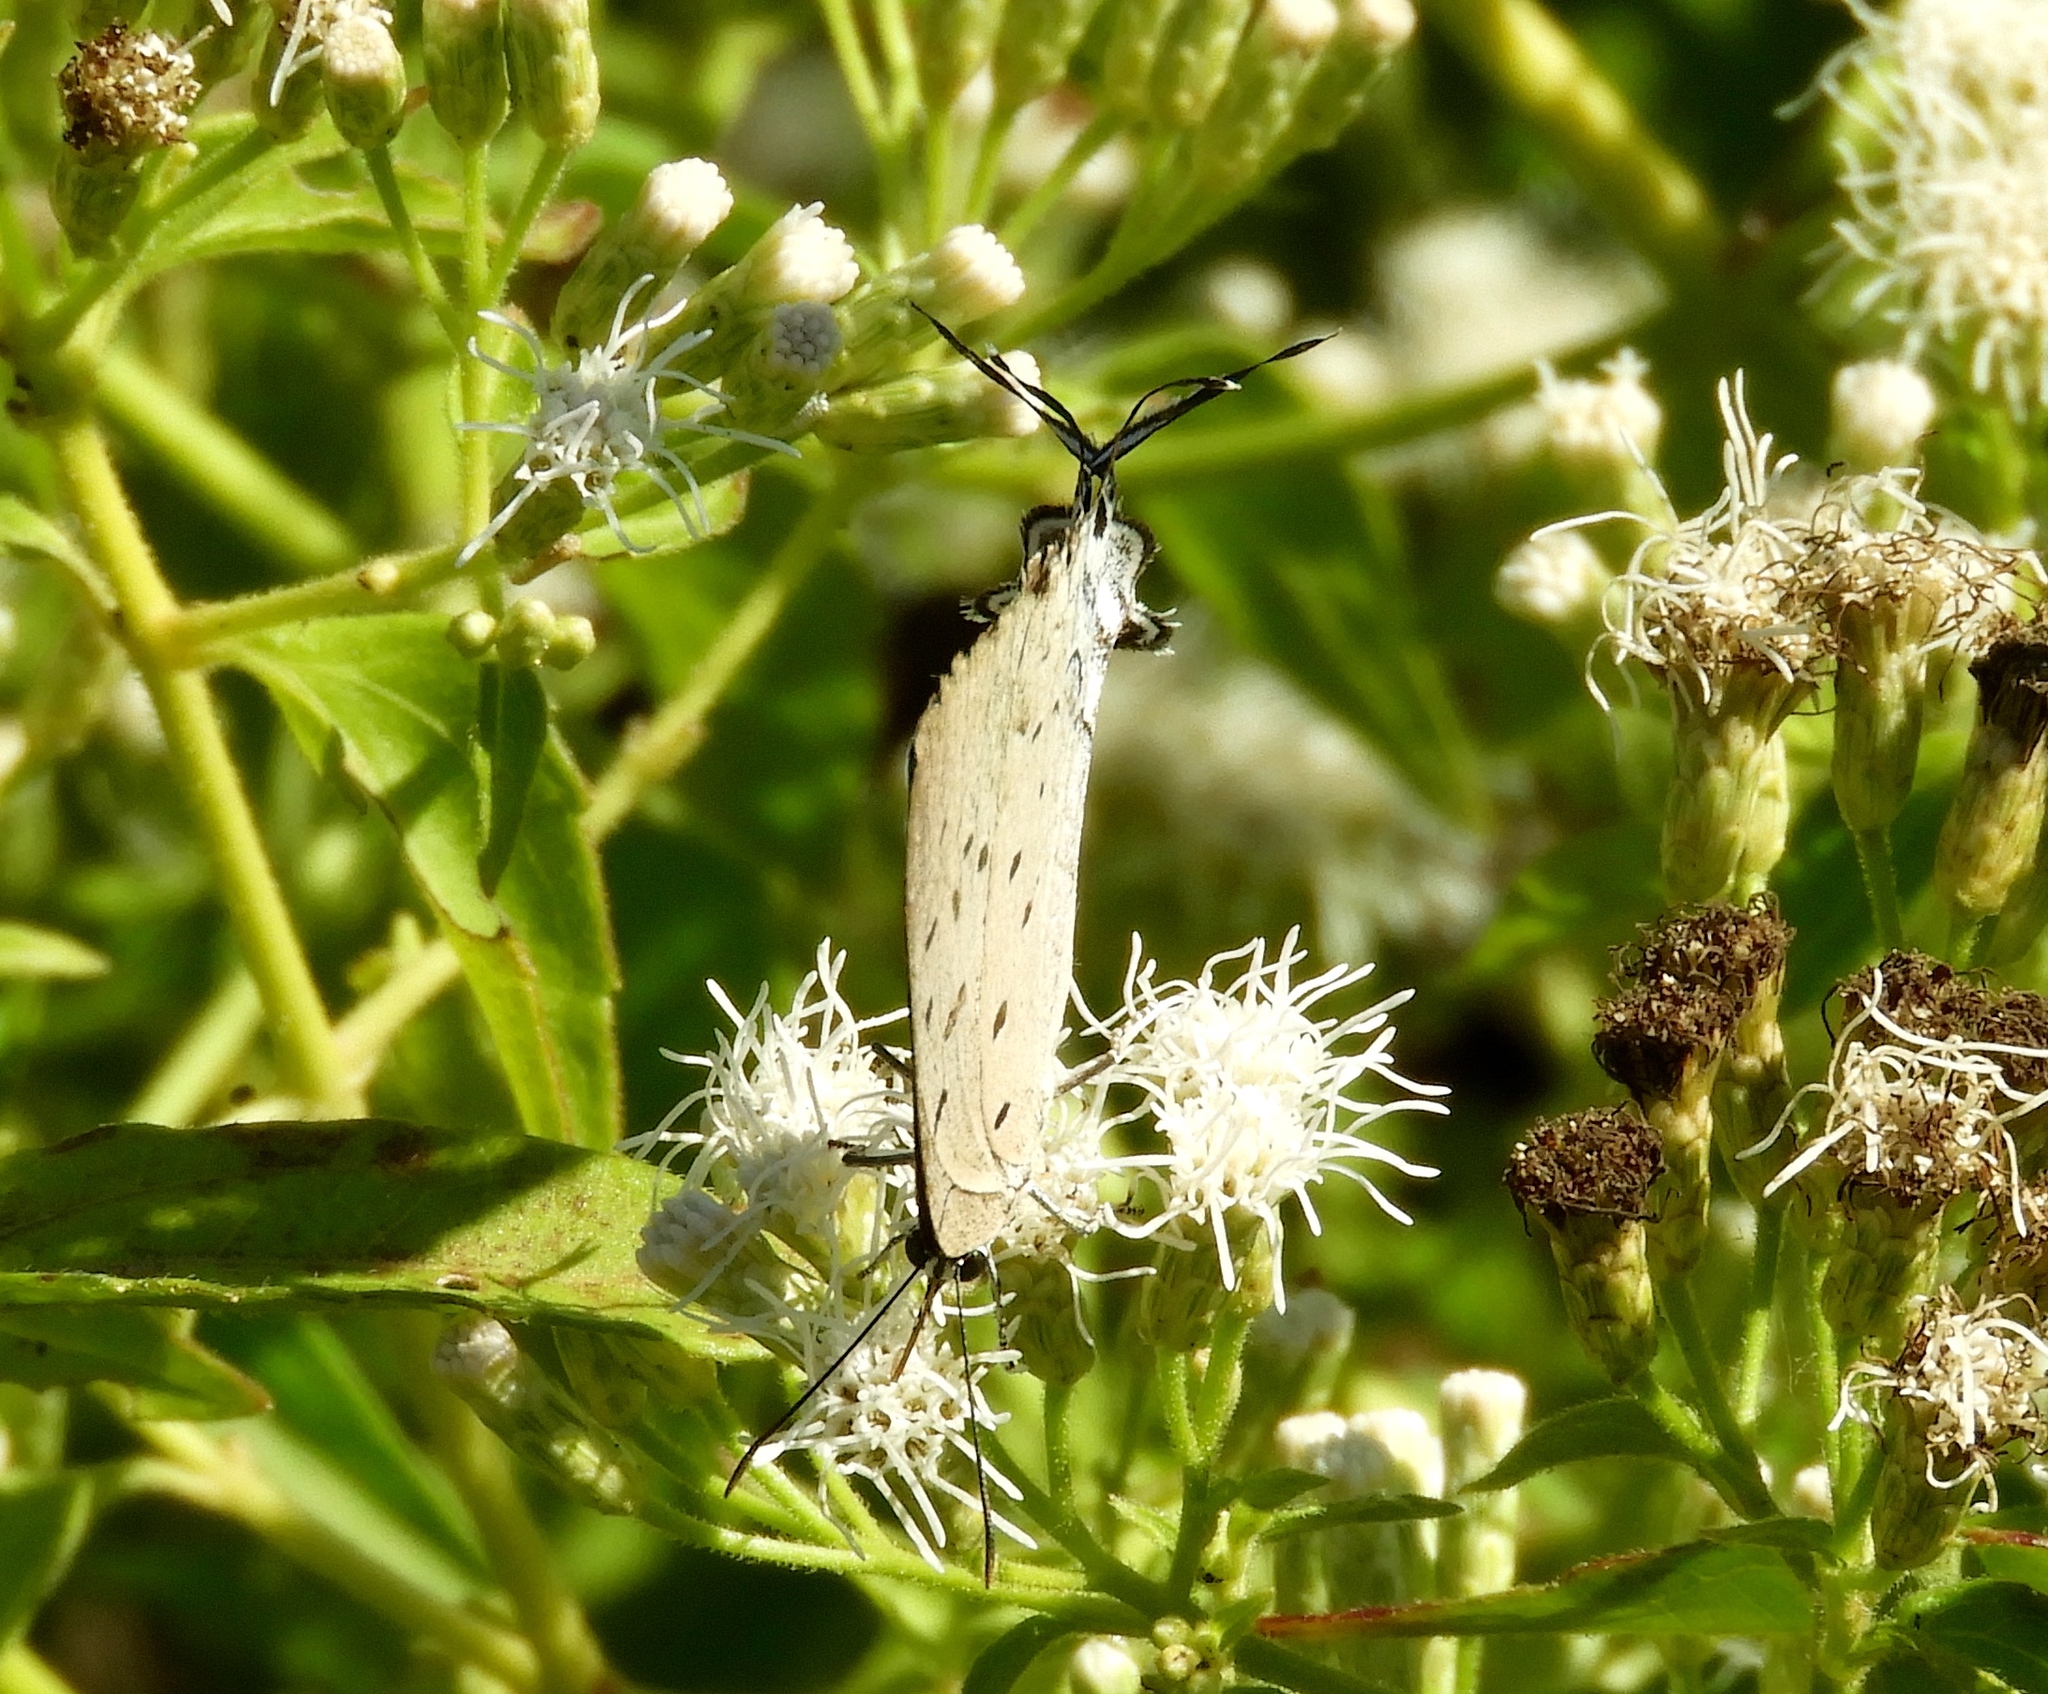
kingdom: Animalia
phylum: Arthropoda
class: Insecta
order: Lepidoptera
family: Lycaenidae
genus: Pseudolycaena
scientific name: Pseudolycaena damo
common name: Sky-blue hairstreak
